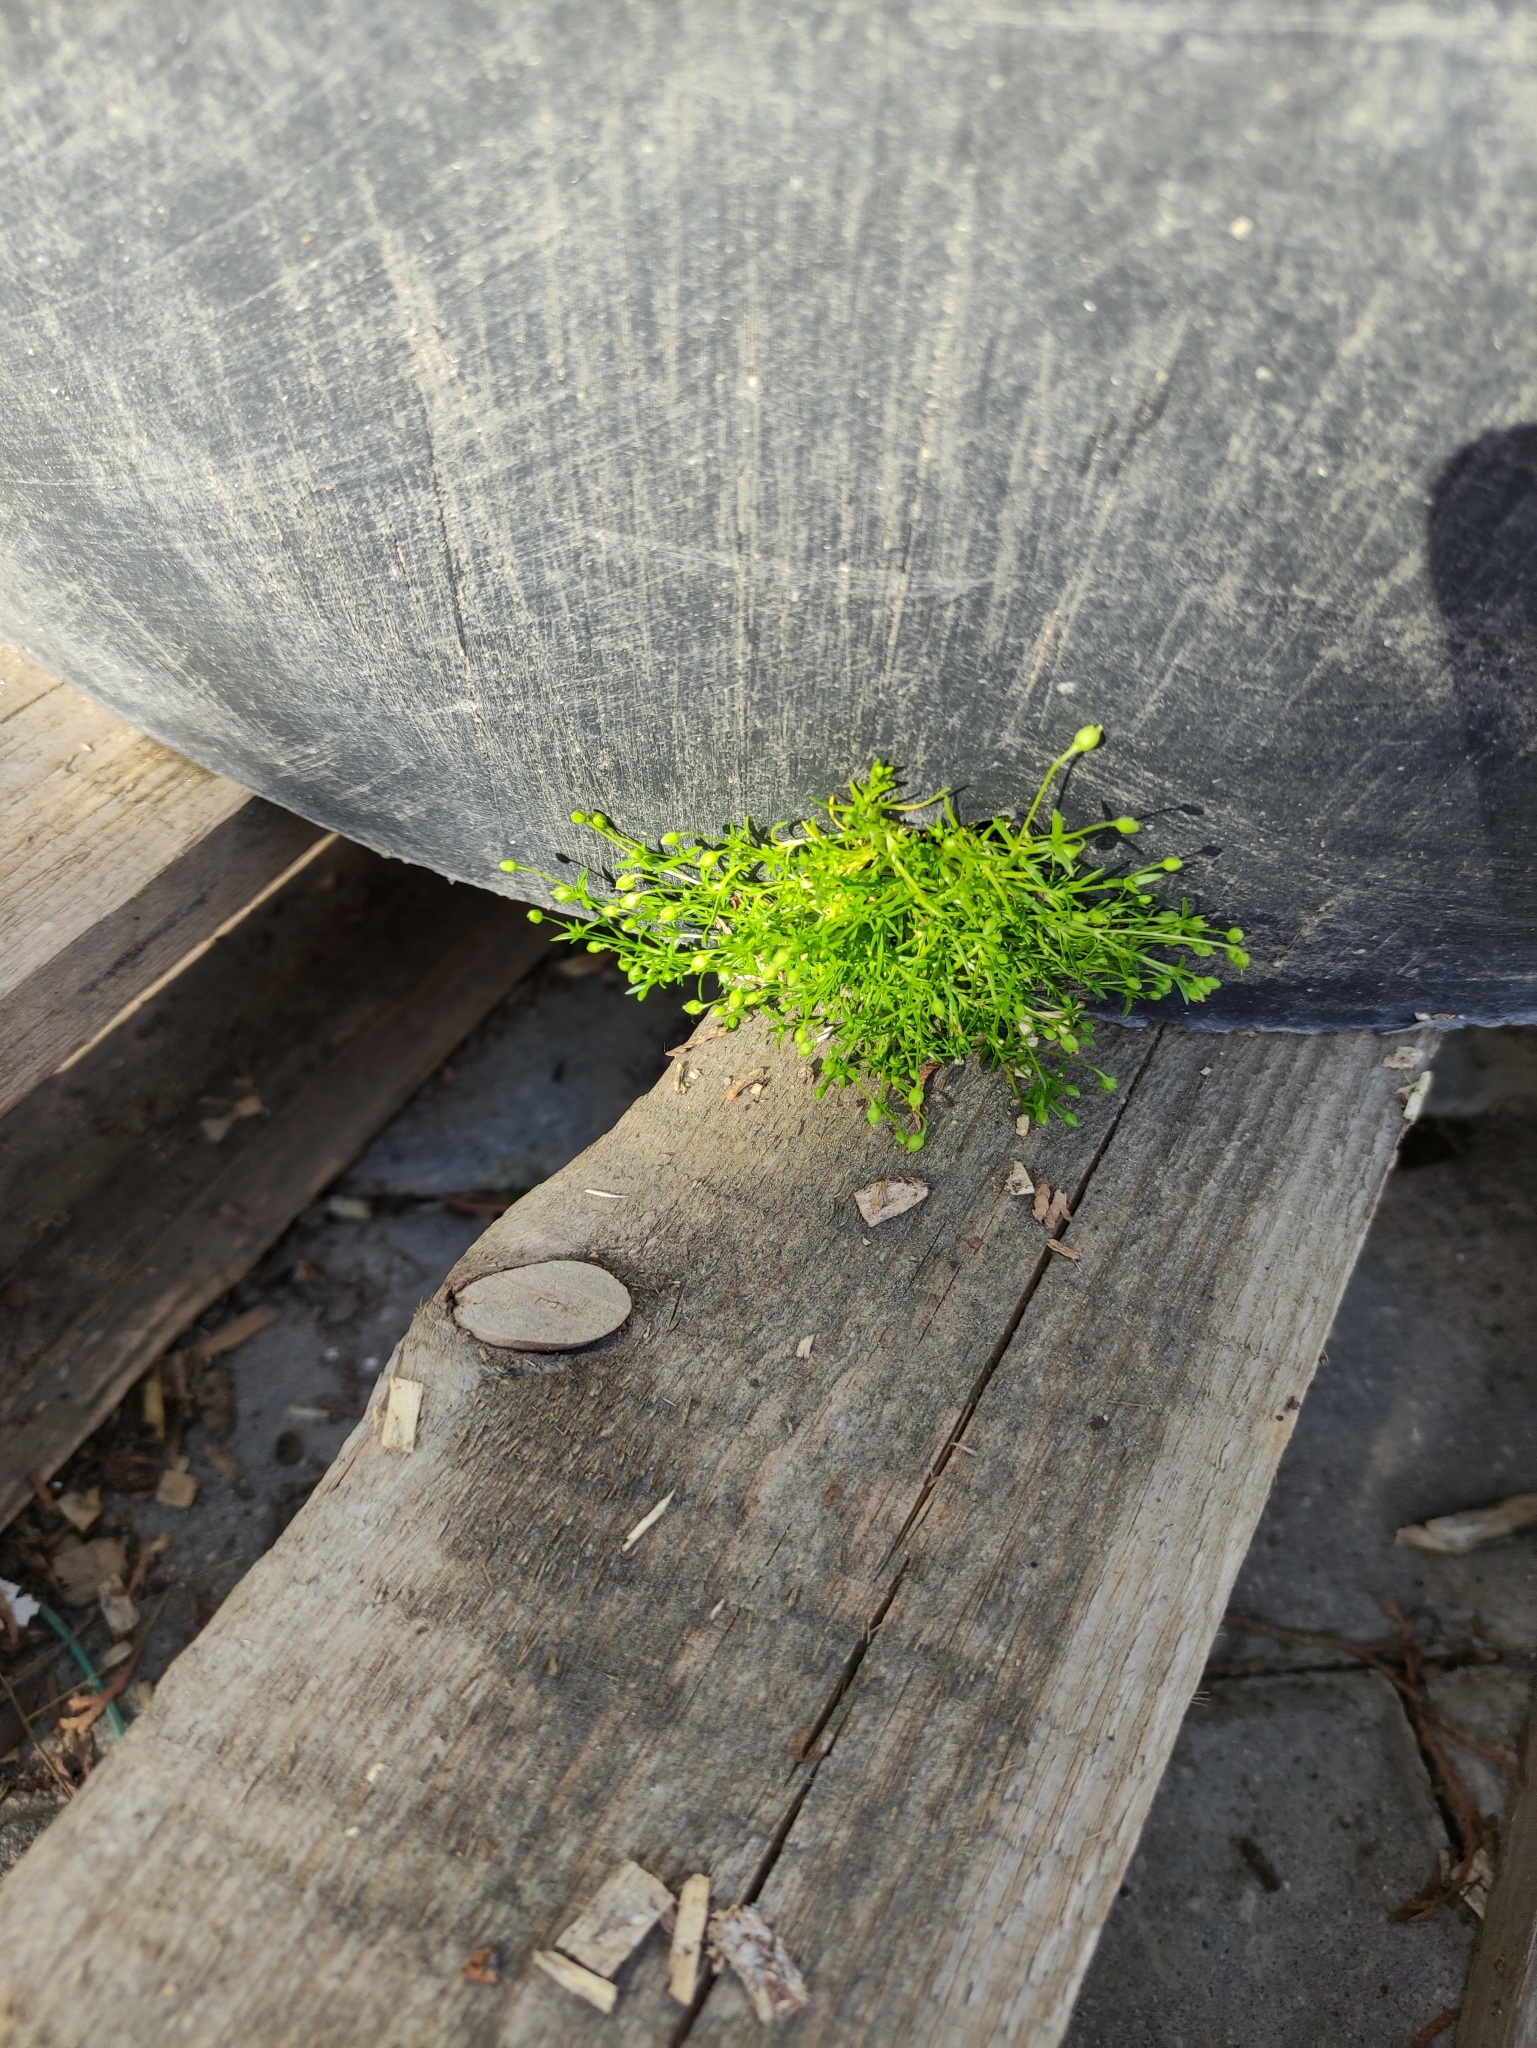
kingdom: Plantae
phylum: Tracheophyta
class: Magnoliopsida
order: Caryophyllales
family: Caryophyllaceae
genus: Sagina
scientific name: Sagina procumbens
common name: Procumbent pearlwort
